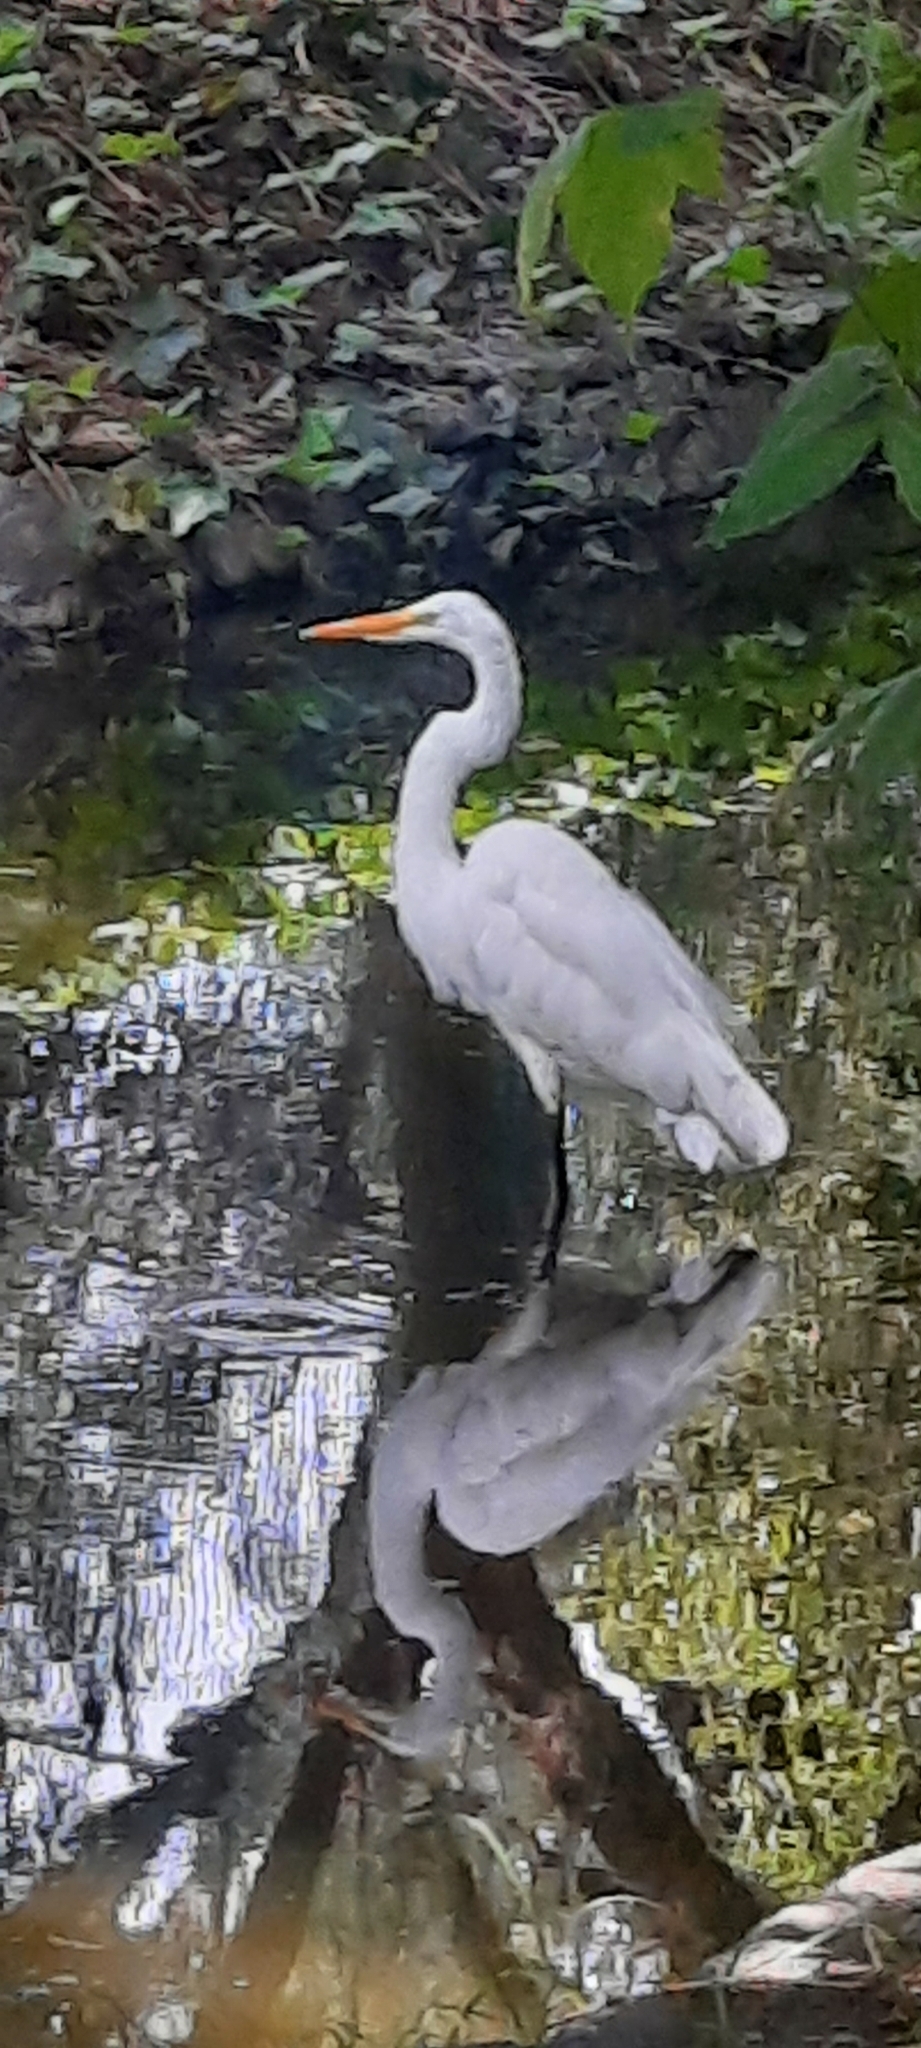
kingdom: Animalia
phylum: Chordata
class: Aves
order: Pelecaniformes
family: Ardeidae
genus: Ardea
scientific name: Ardea alba
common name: Great egret
